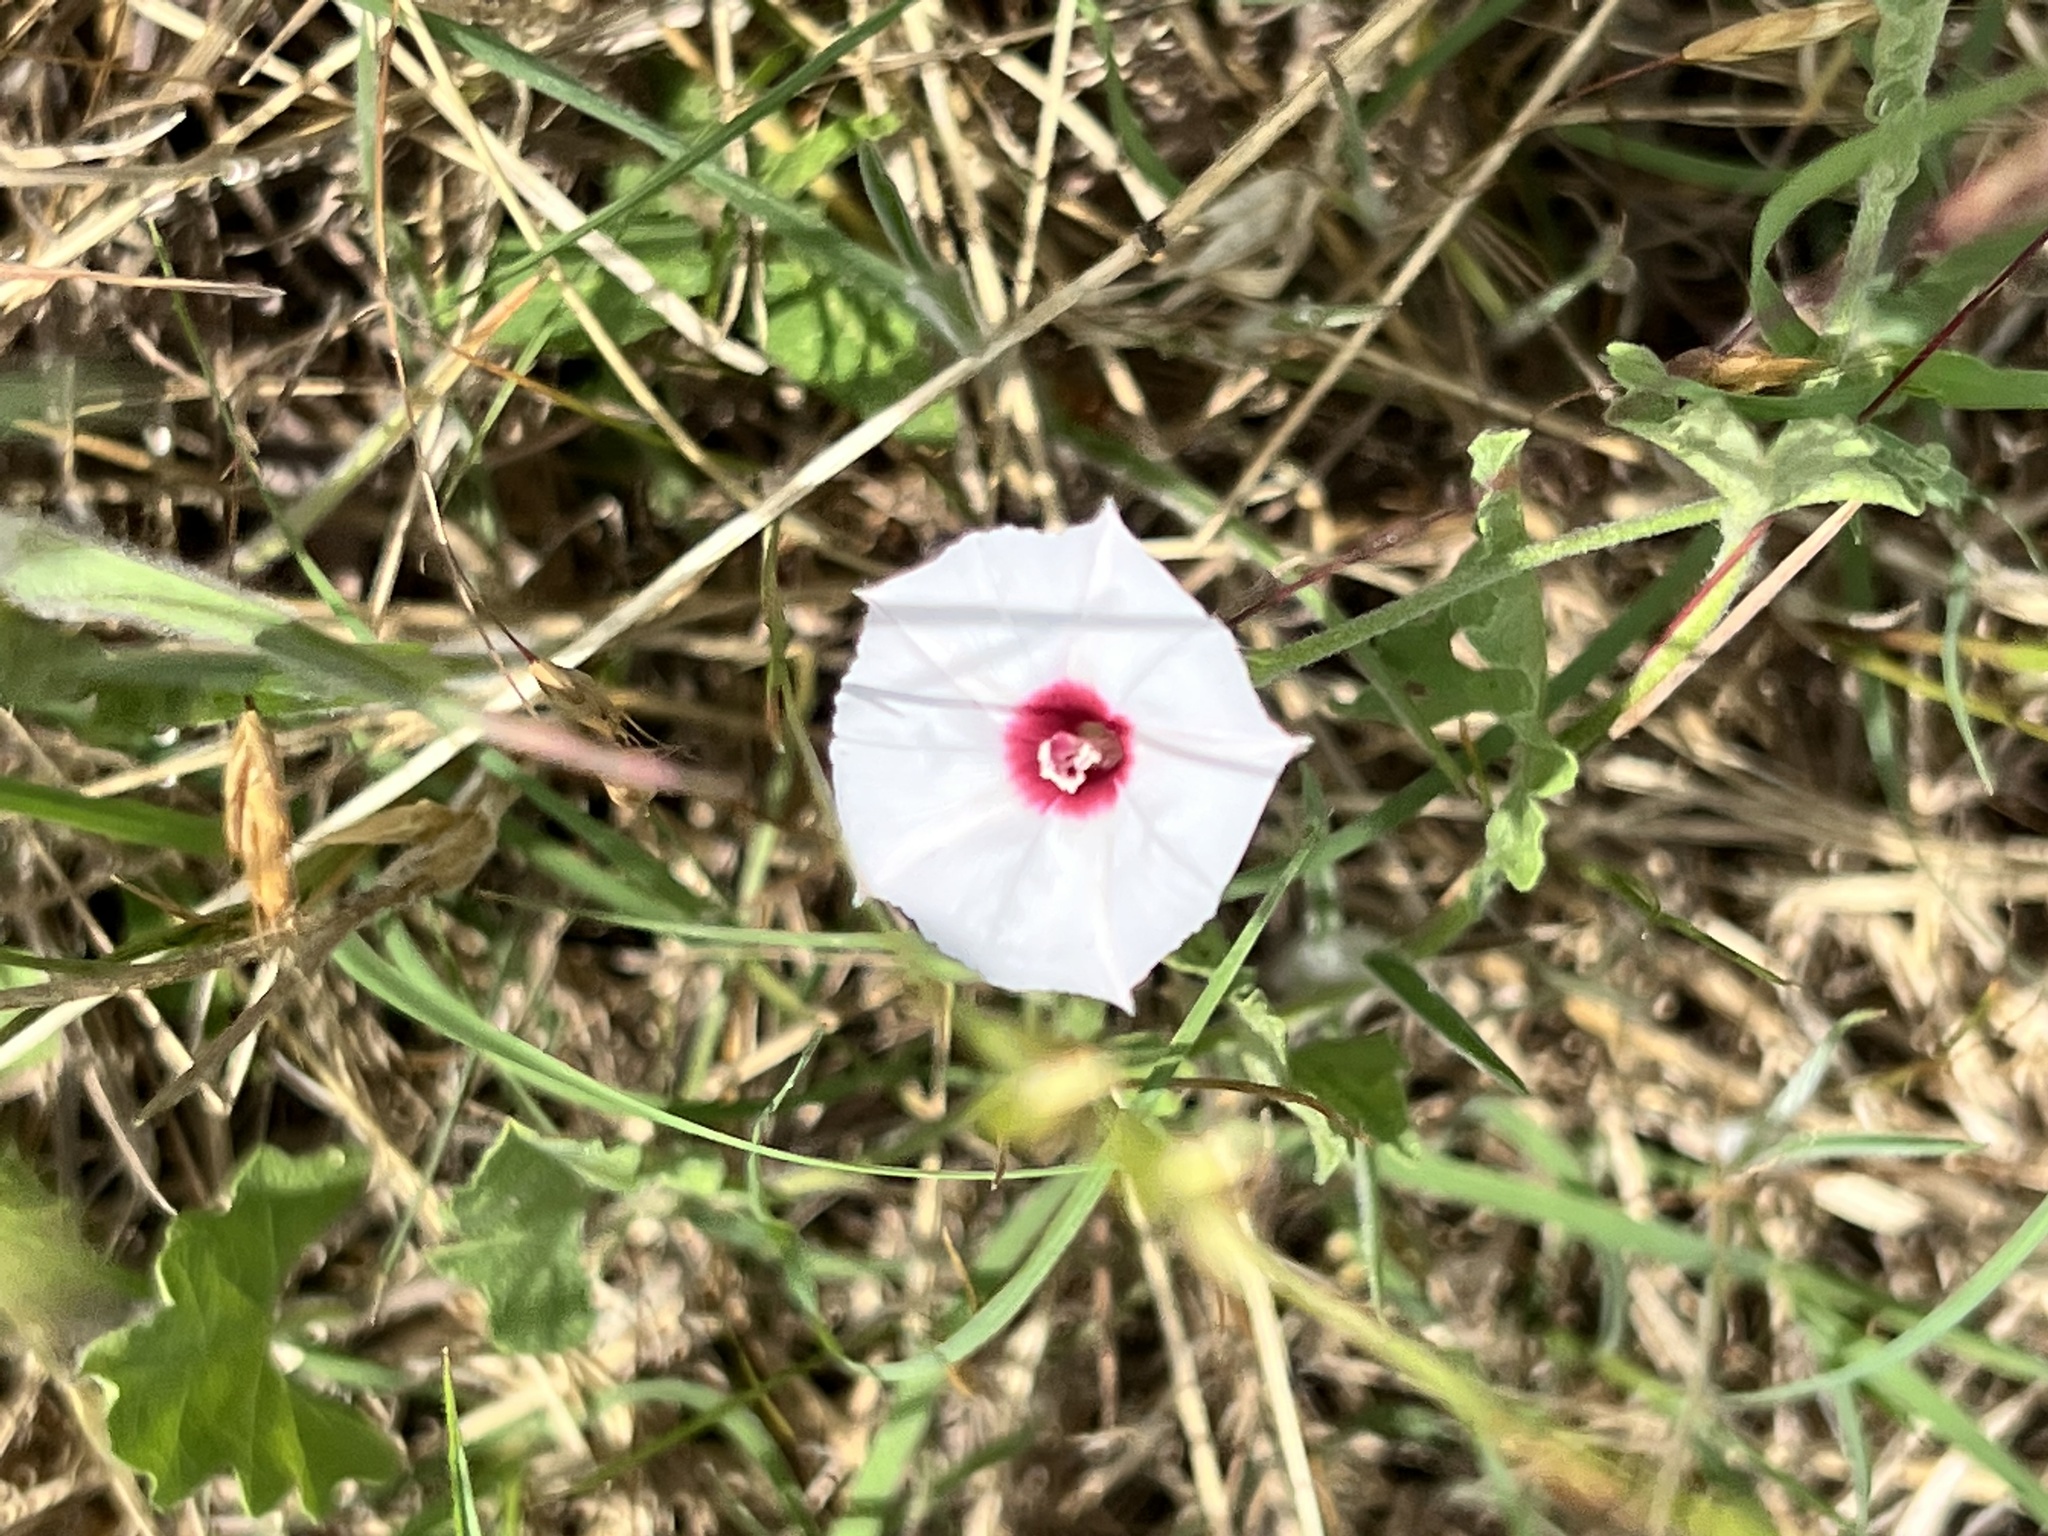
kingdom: Plantae
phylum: Tracheophyta
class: Magnoliopsida
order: Solanales
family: Convolvulaceae
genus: Convolvulus
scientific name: Convolvulus equitans
